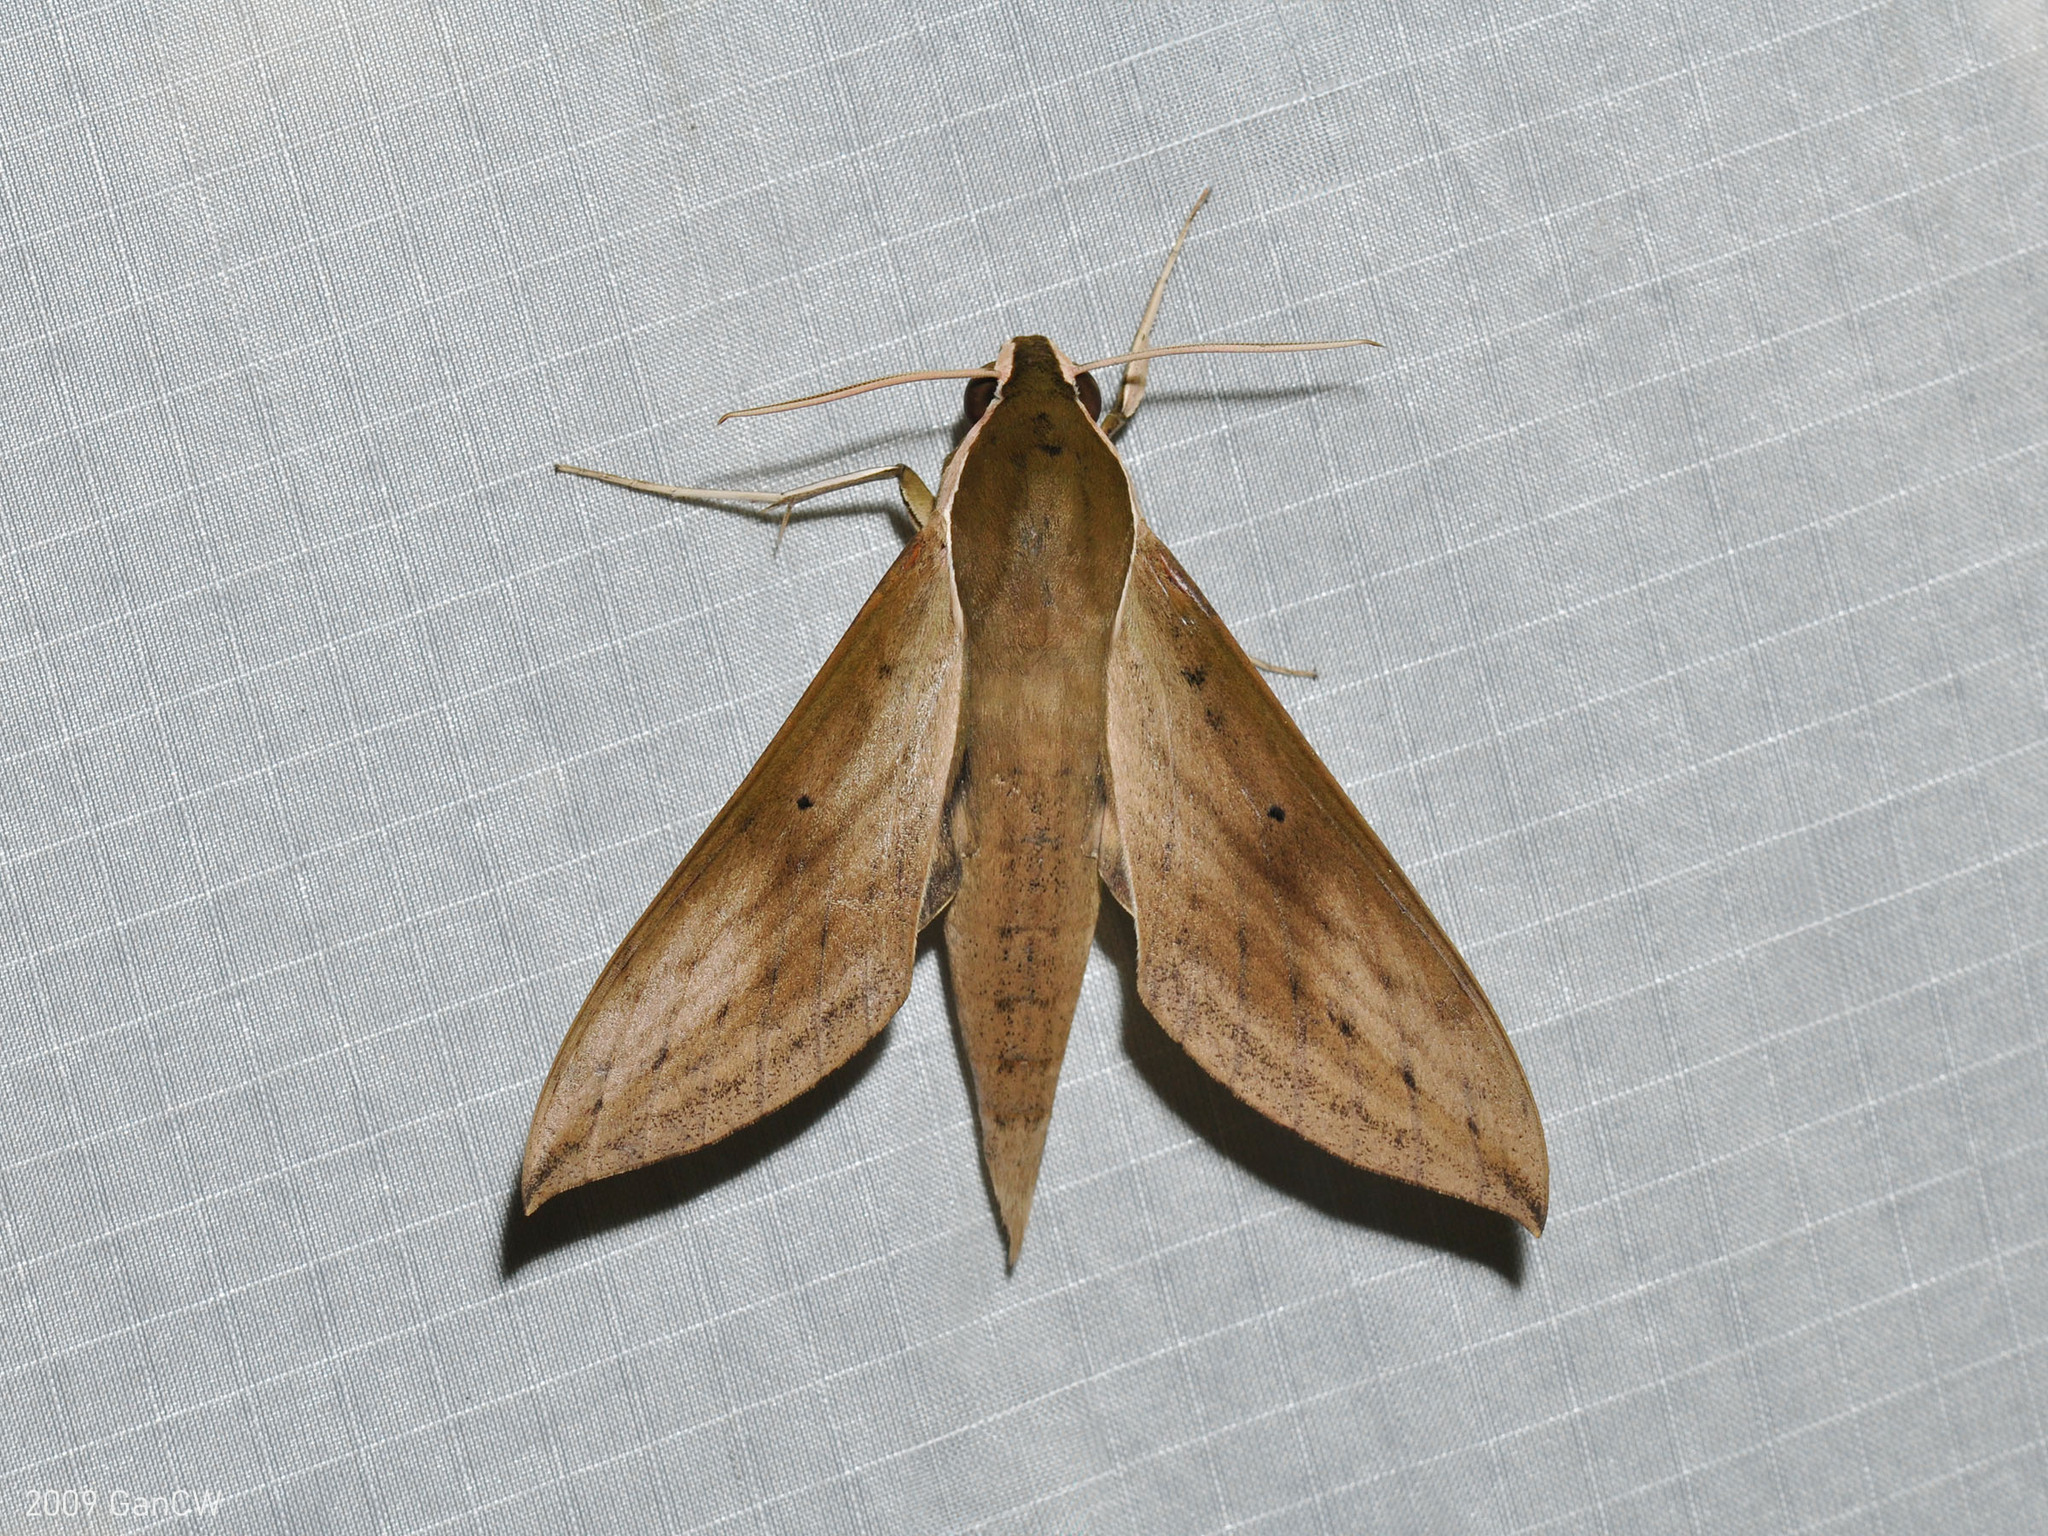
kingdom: Animalia
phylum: Arthropoda
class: Insecta
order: Lepidoptera
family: Sphingidae
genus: Theretra
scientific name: Theretra sumatrensis
